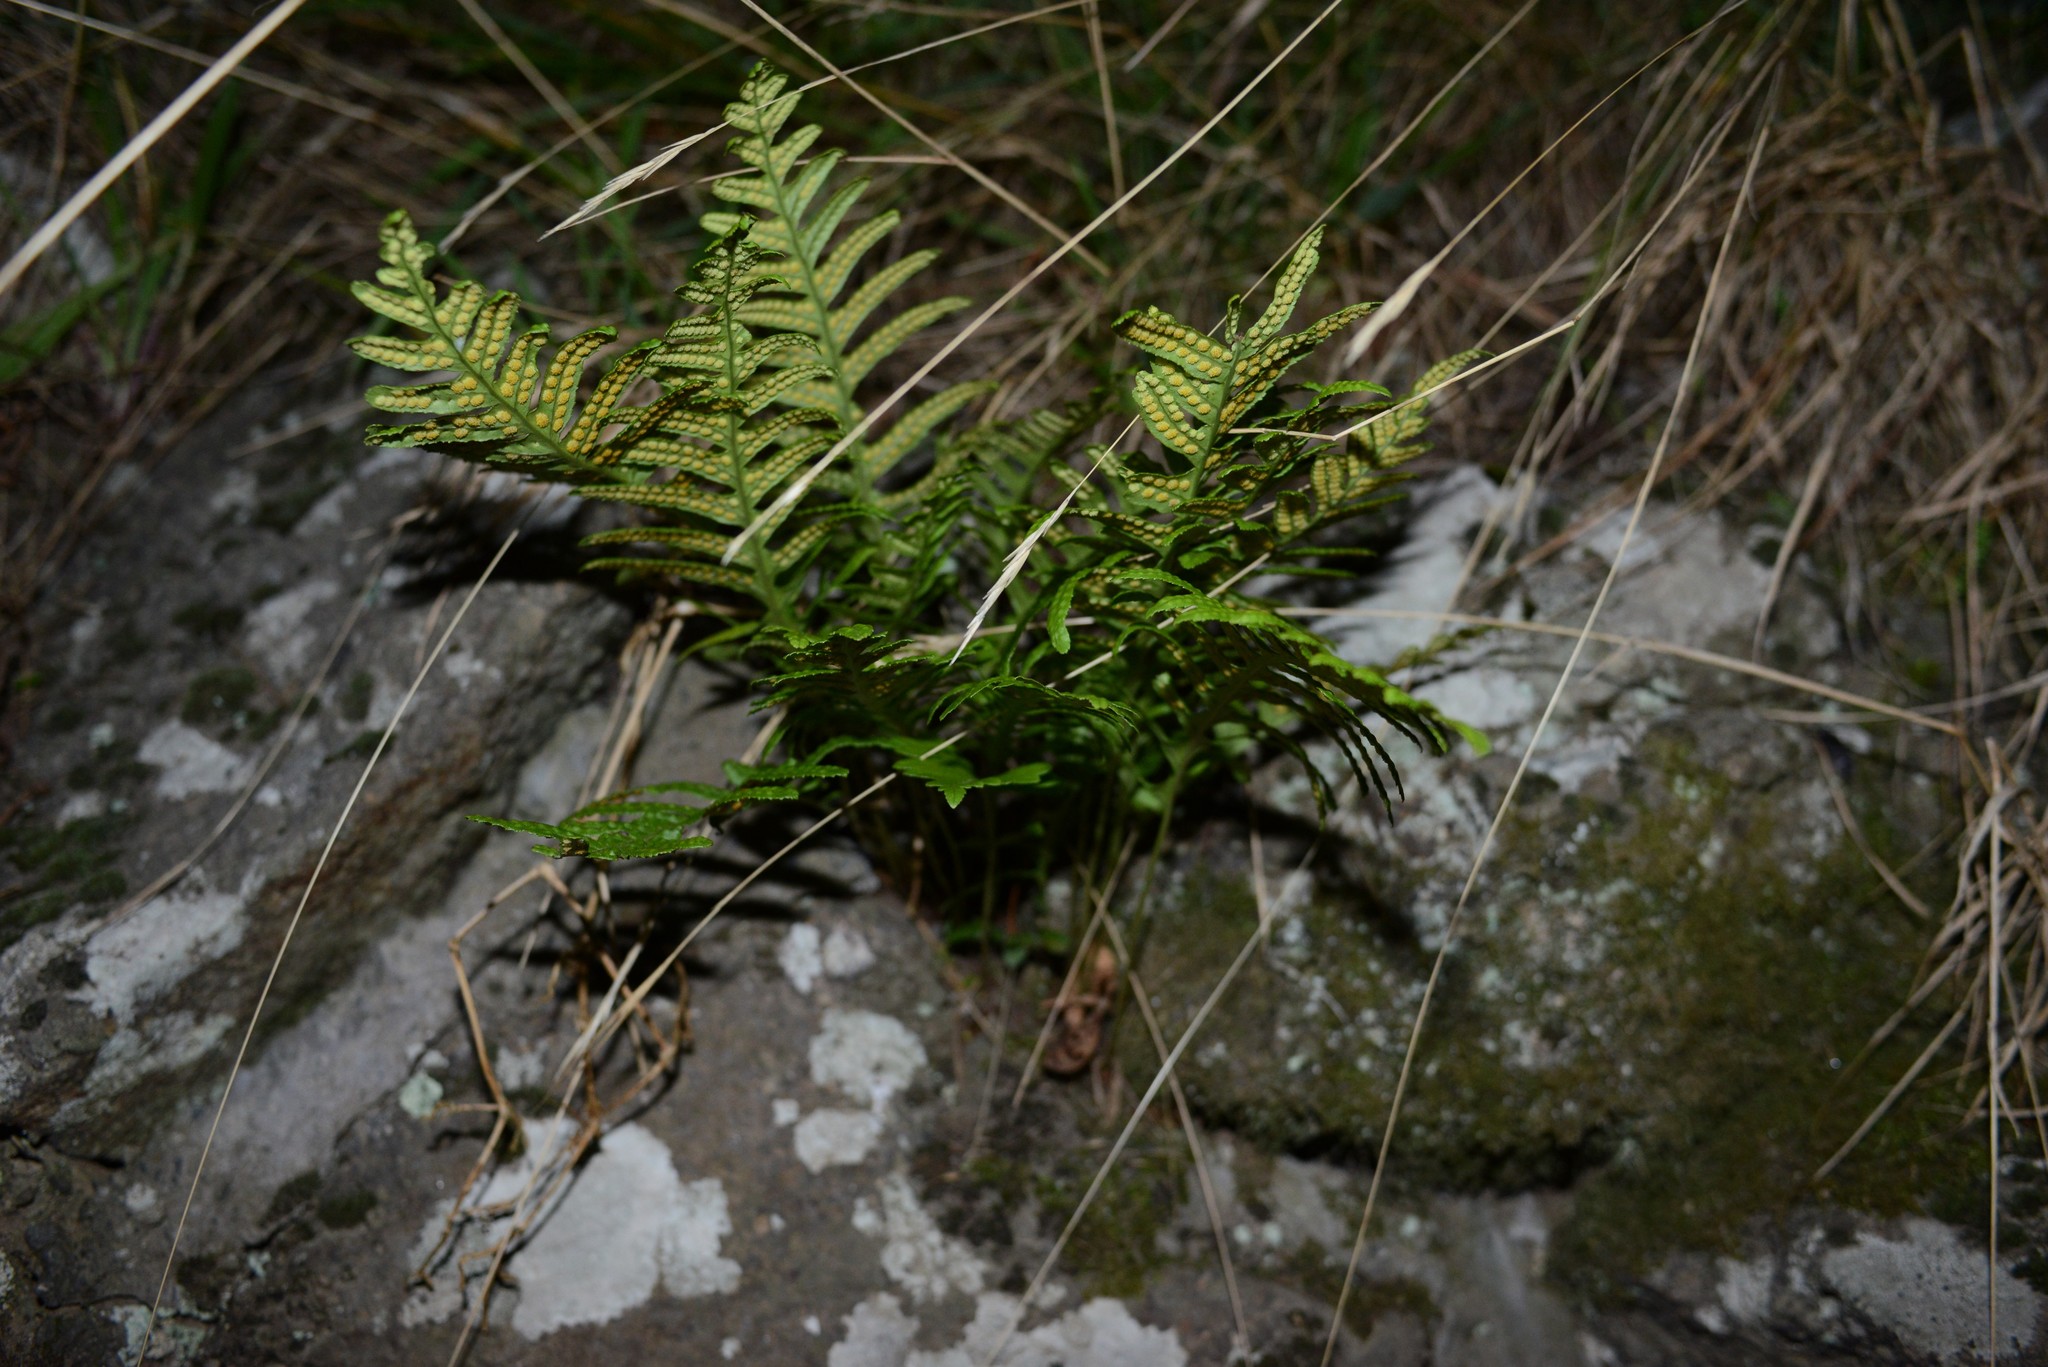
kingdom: Plantae
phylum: Tracheophyta
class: Polypodiopsida
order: Polypodiales
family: Polypodiaceae
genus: Polypodium
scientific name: Polypodium vulgare
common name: Common polypody
